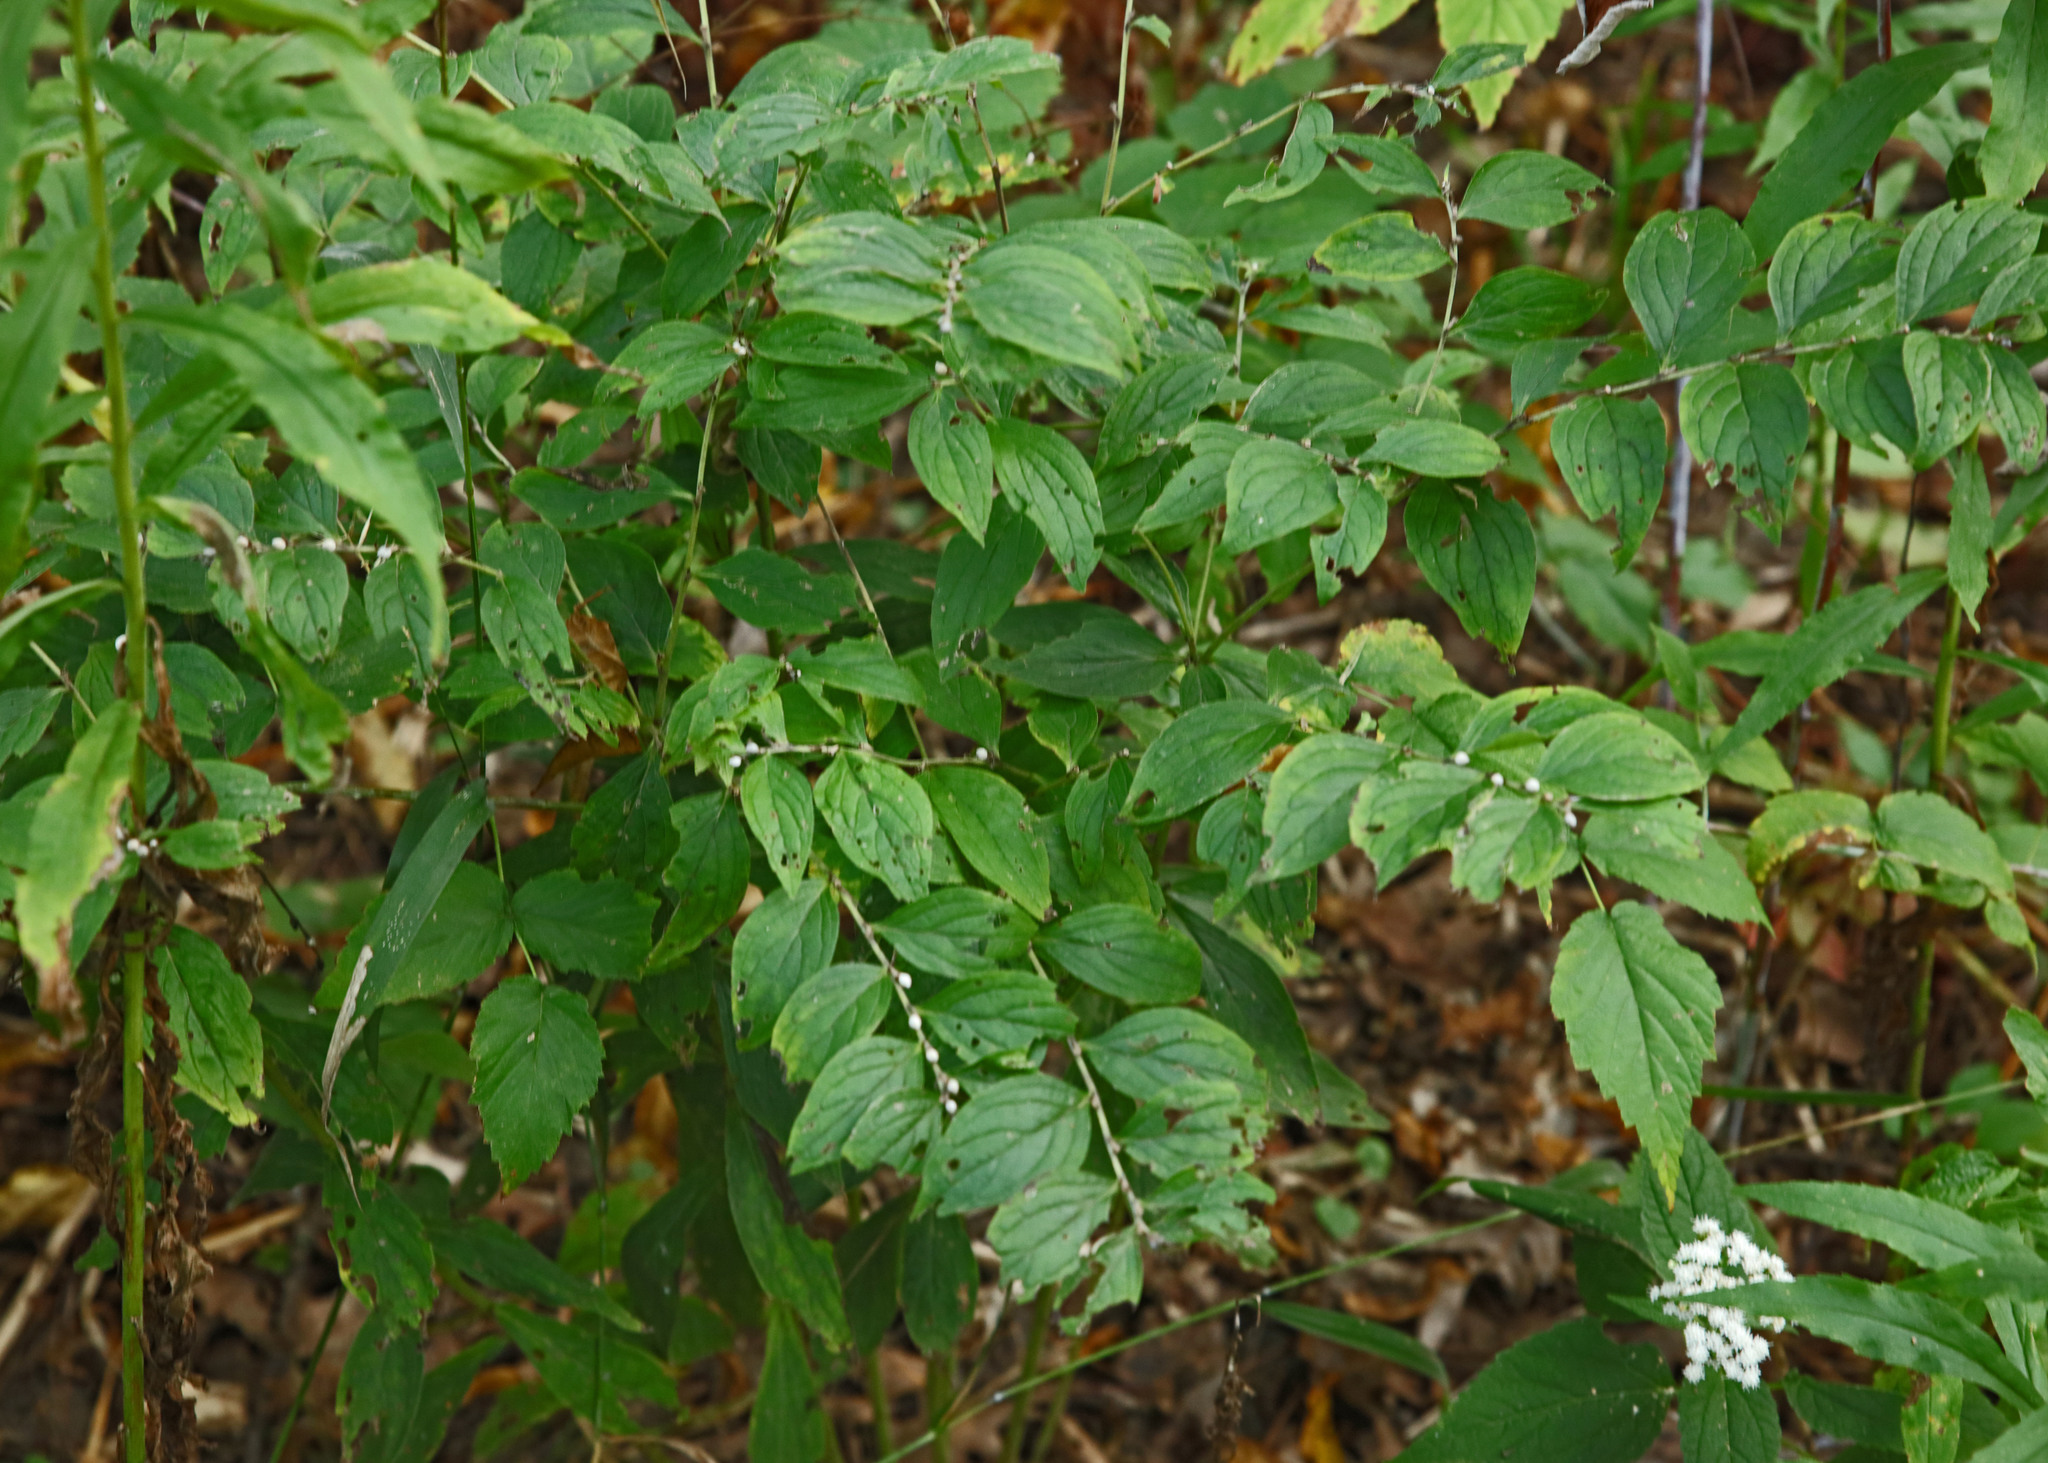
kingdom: Plantae
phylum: Tracheophyta
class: Magnoliopsida
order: Boraginales
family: Boraginaceae
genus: Lithospermum
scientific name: Lithospermum latifolium
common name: American gromwell
